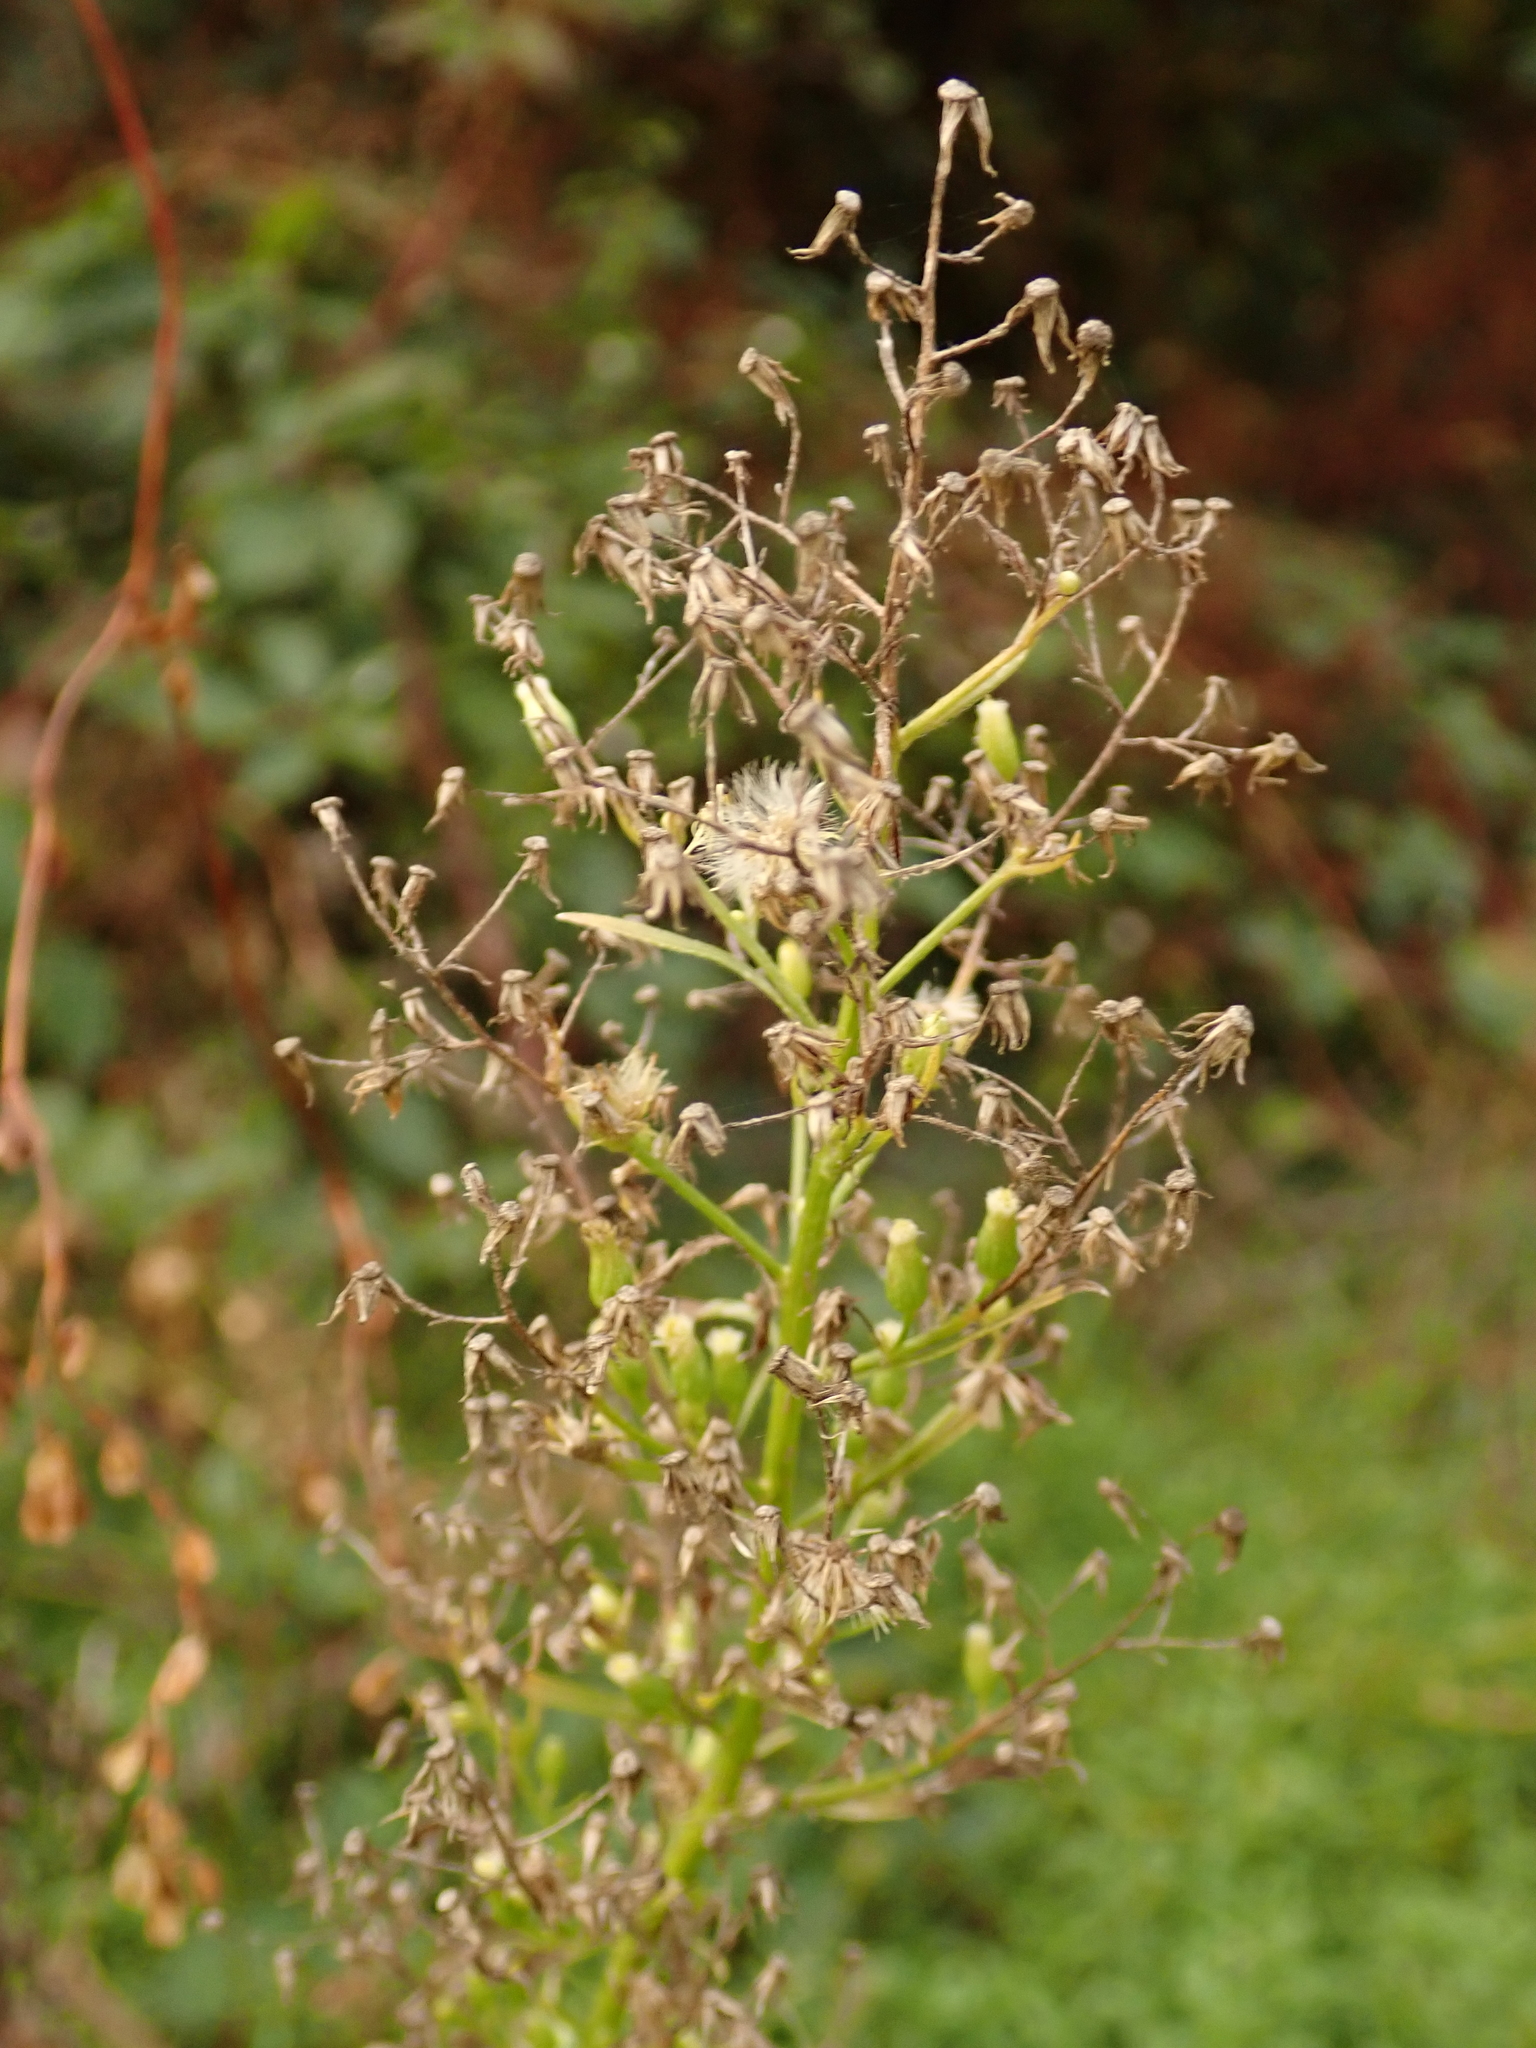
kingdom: Plantae
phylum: Tracheophyta
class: Magnoliopsida
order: Asterales
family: Asteraceae
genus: Erigeron
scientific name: Erigeron canadensis
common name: Canadian fleabane
